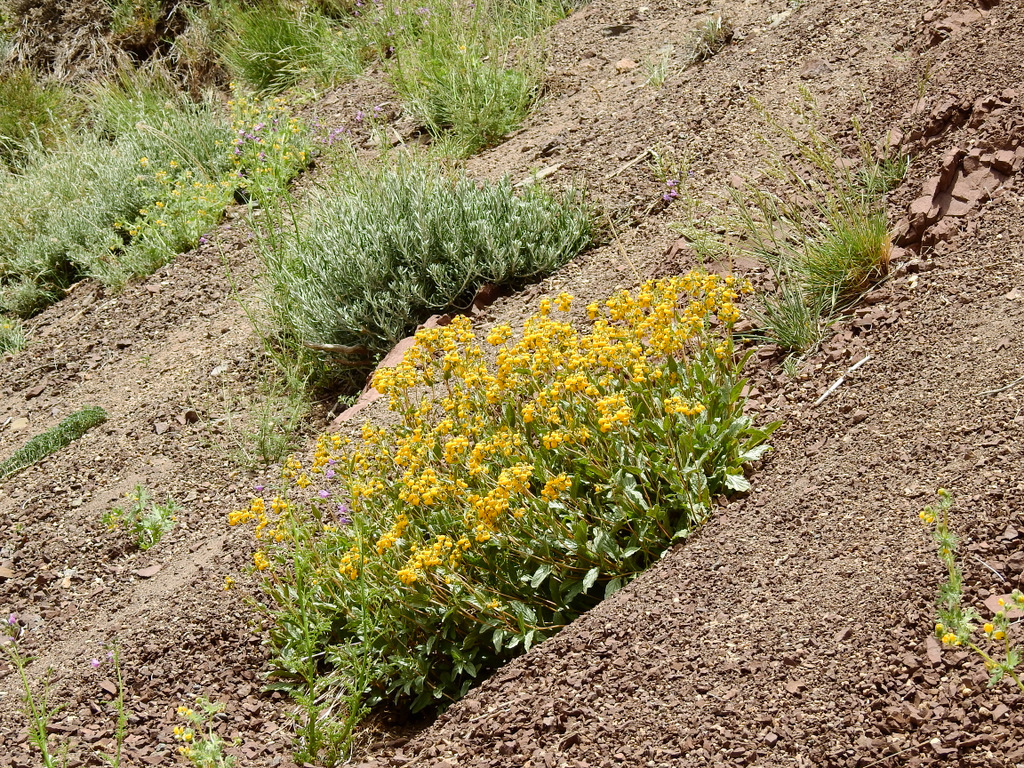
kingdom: Plantae
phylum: Tracheophyta
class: Magnoliopsida
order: Lamiales
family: Calceolariaceae
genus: Calceolaria
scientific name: Calceolaria germainii
